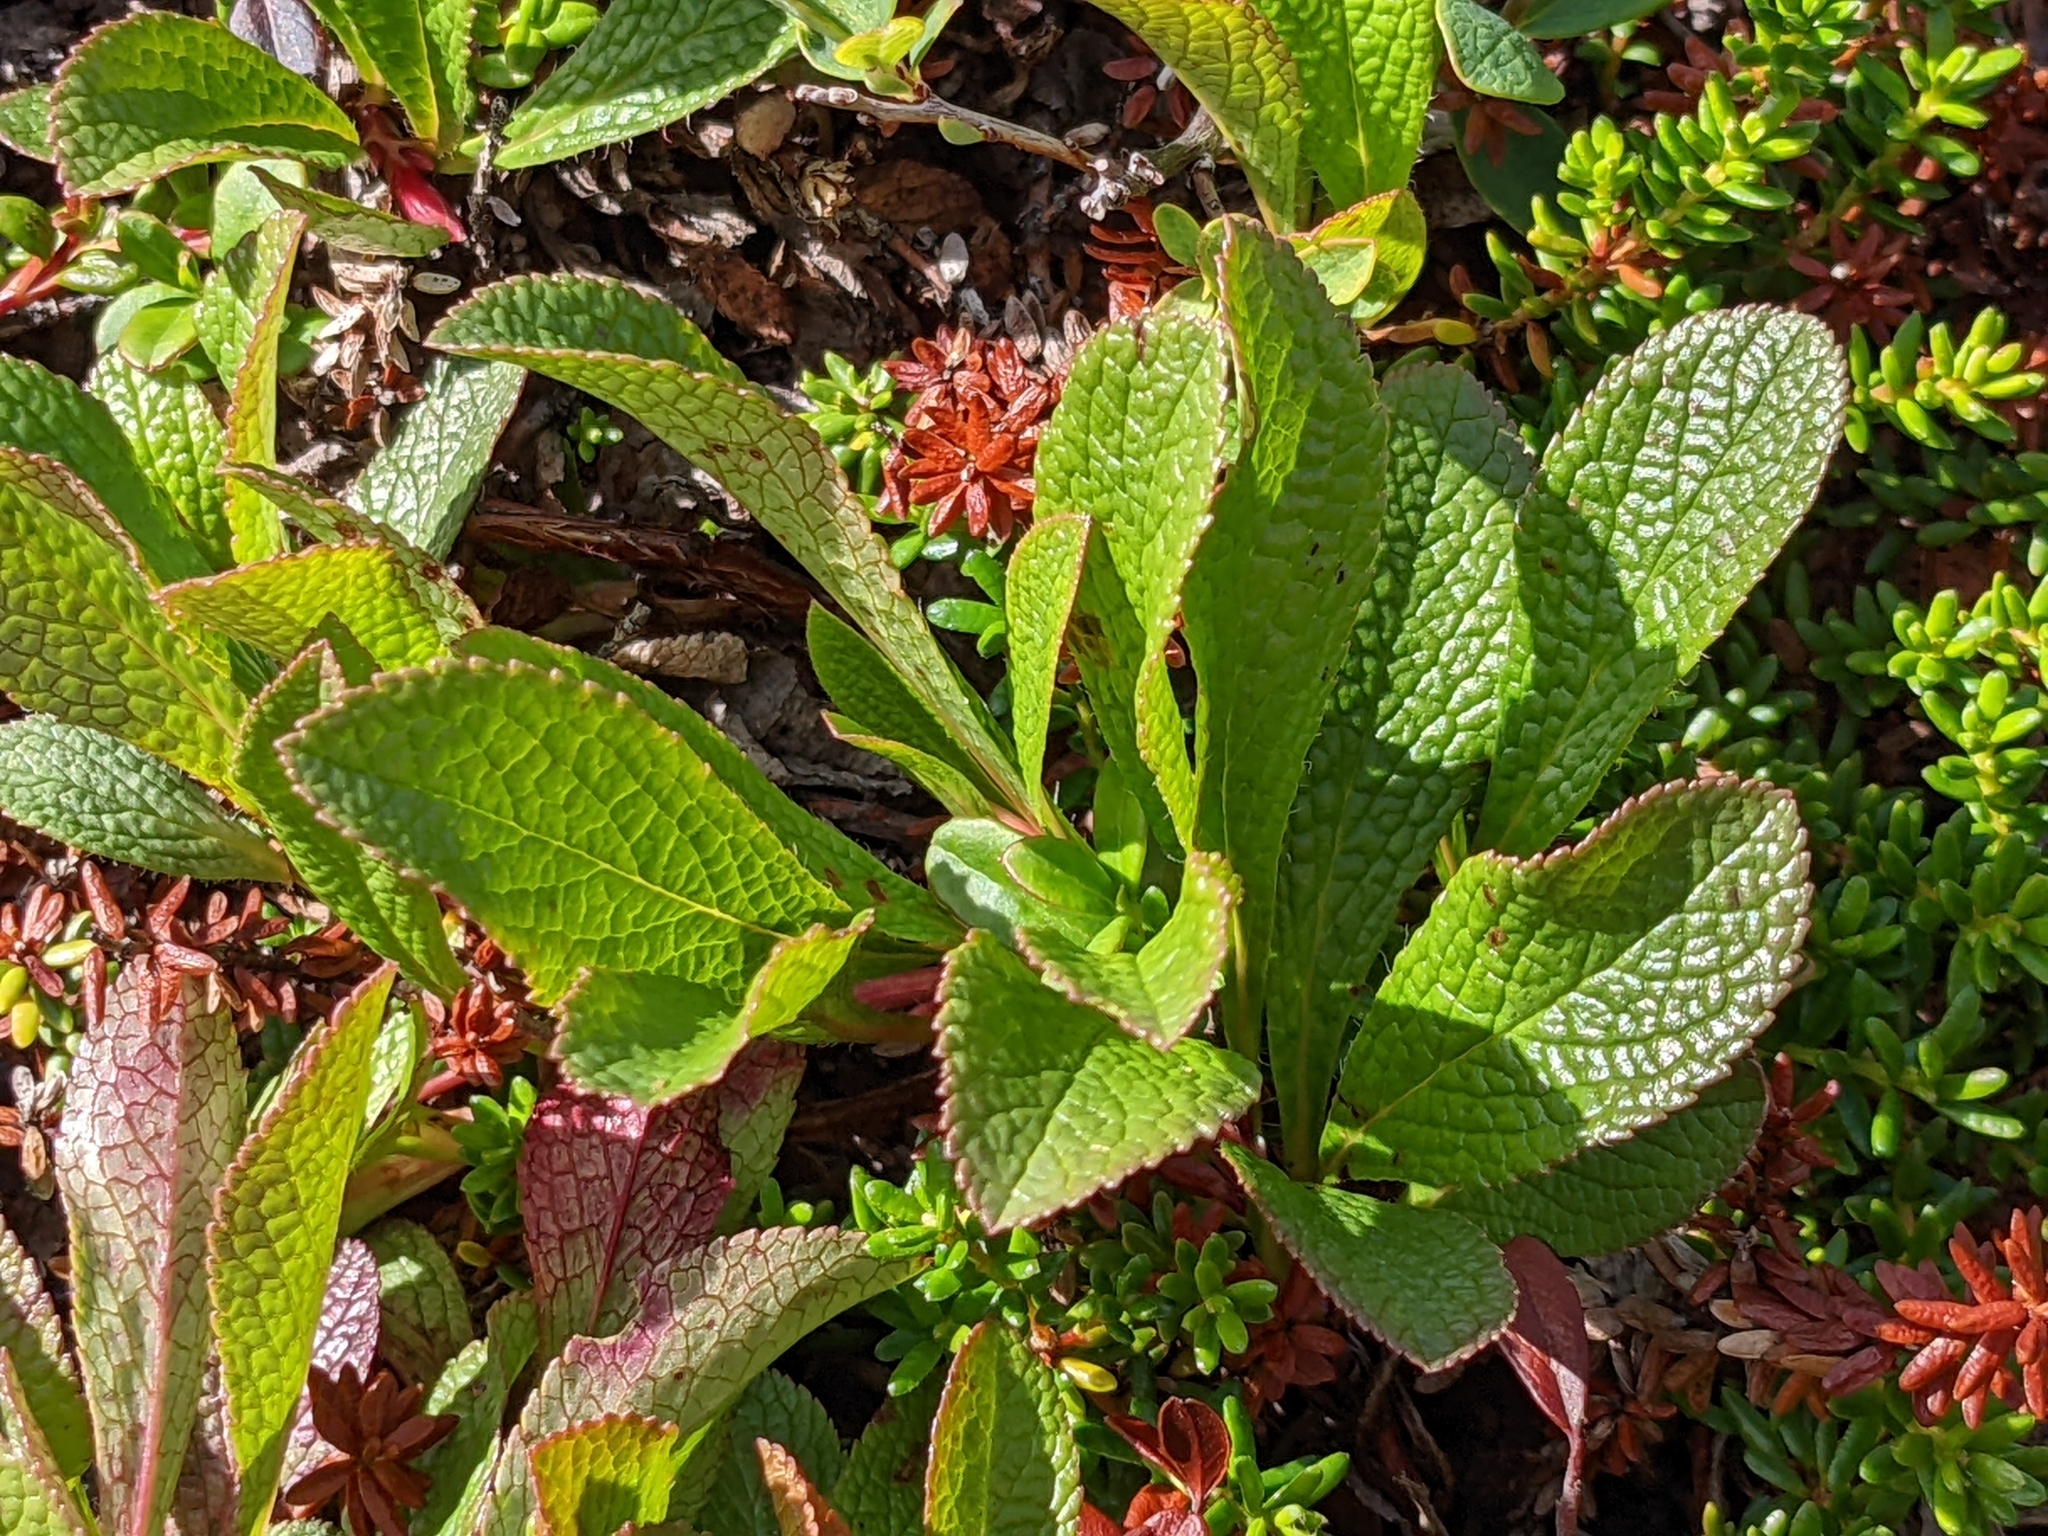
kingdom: Plantae
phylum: Tracheophyta
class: Magnoliopsida
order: Ericales
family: Ericaceae
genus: Arctostaphylos
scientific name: Arctostaphylos alpinus
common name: Alpine bearberry
